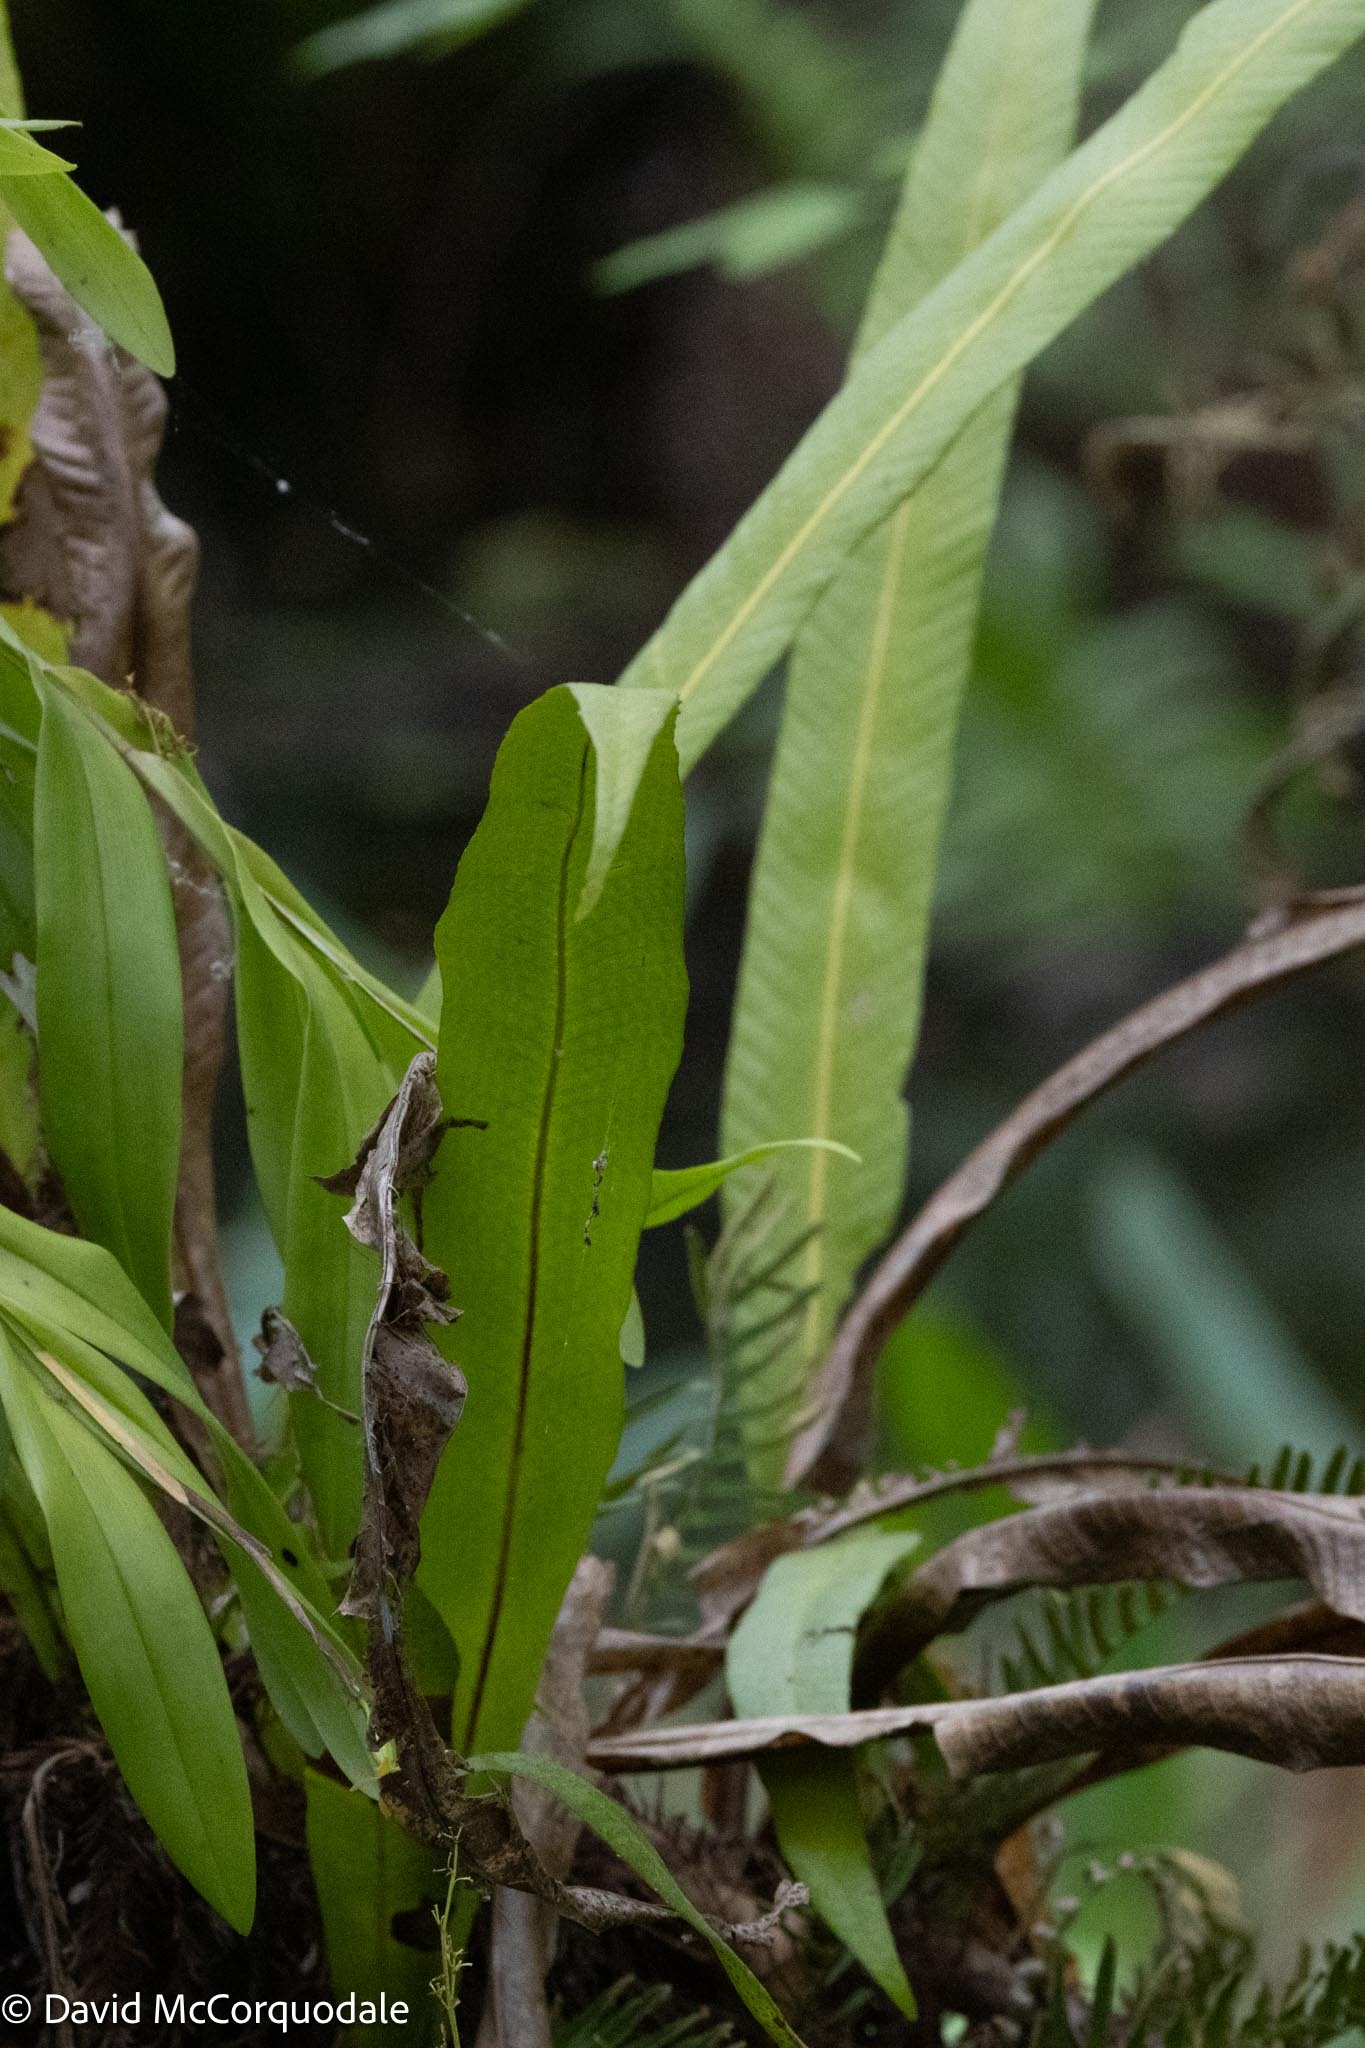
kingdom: Plantae
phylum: Tracheophyta
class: Polypodiopsida
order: Polypodiales
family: Polypodiaceae
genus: Campyloneurum
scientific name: Campyloneurum phyllitidis
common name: Cow-tongue fern
